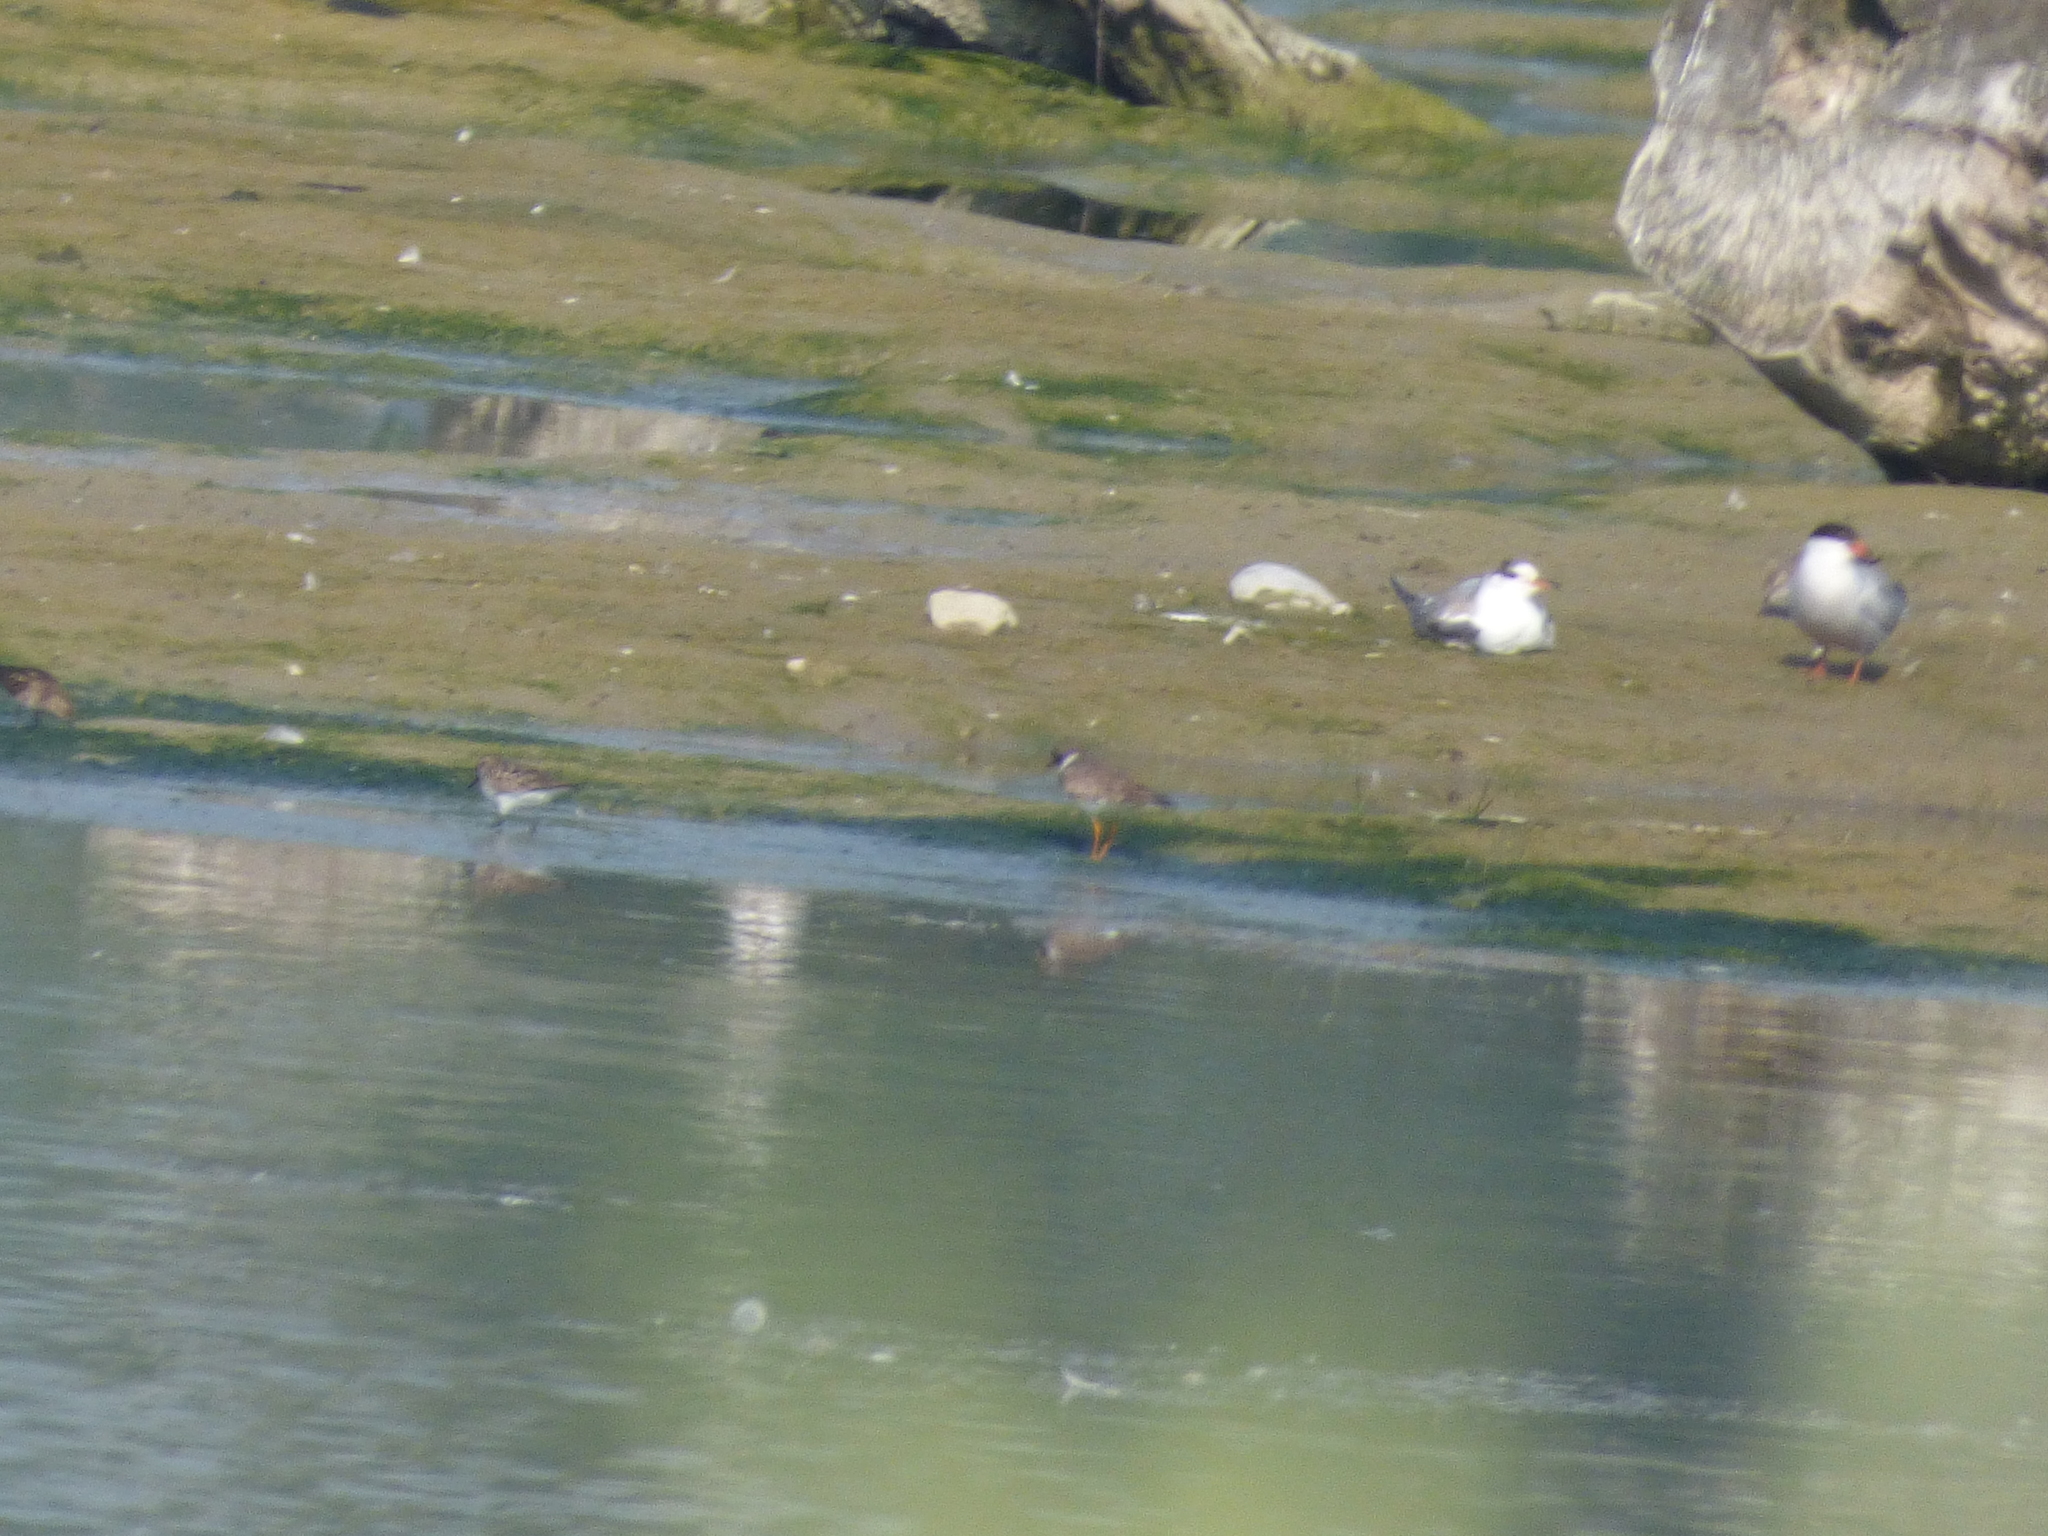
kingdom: Animalia
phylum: Chordata
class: Aves
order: Charadriiformes
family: Charadriidae
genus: Charadrius
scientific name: Charadrius semipalmatus
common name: Semipalmated plover
